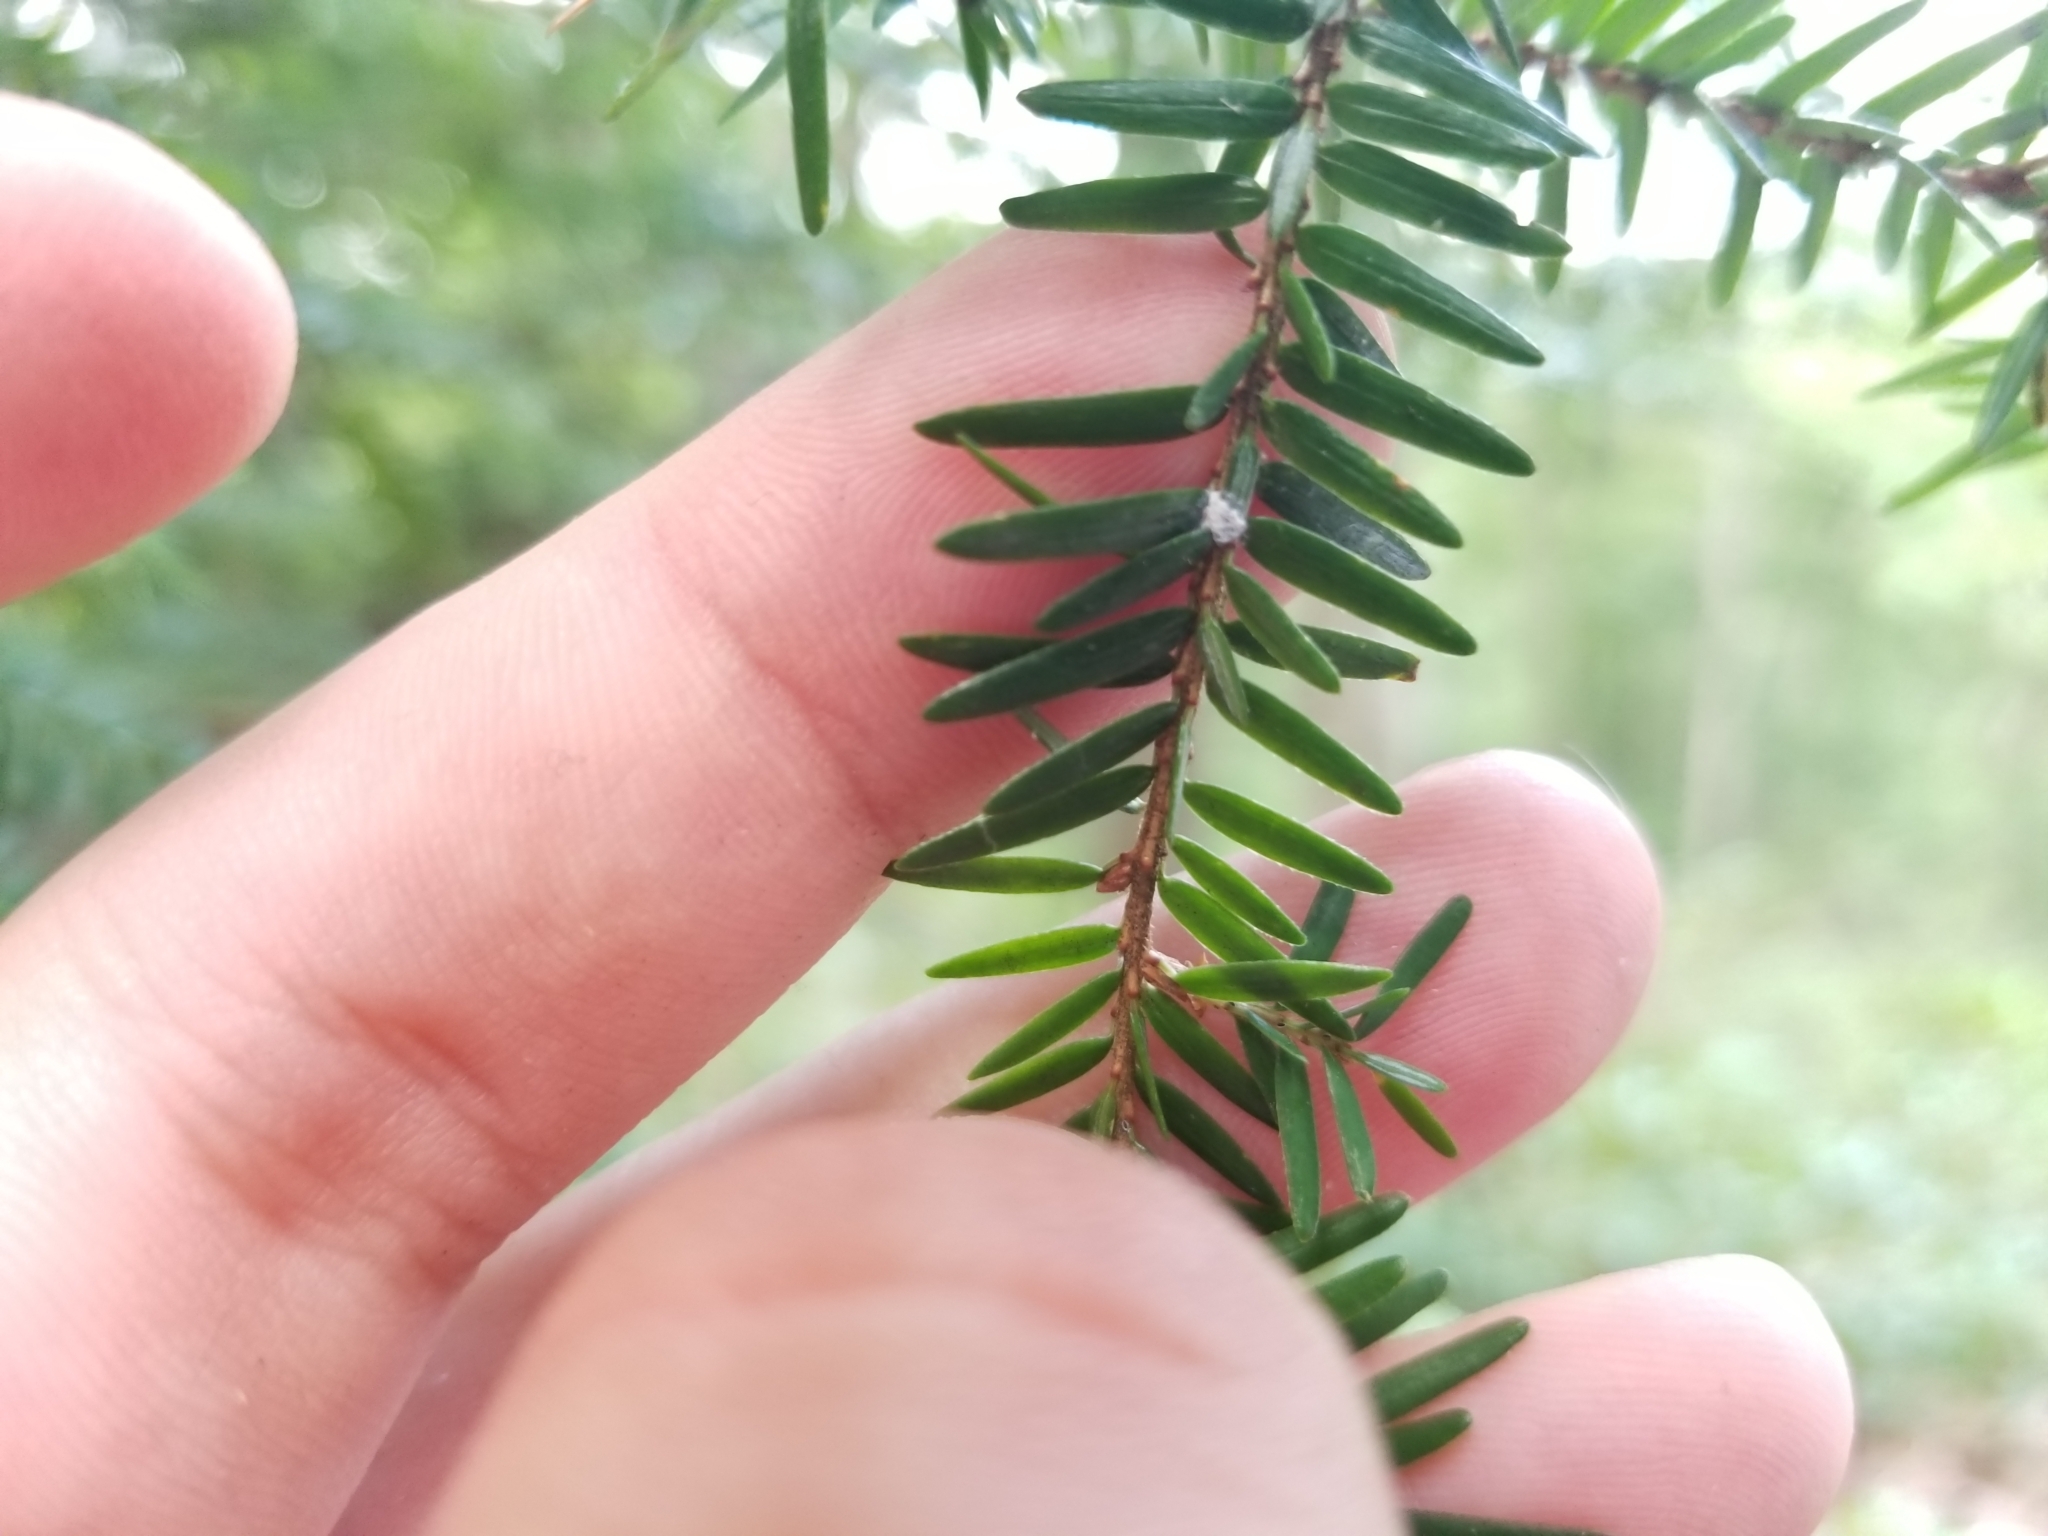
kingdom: Animalia
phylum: Arthropoda
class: Insecta
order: Hemiptera
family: Adelgidae
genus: Adelges
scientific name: Adelges tsugae
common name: Hemlock woolly adelgid
